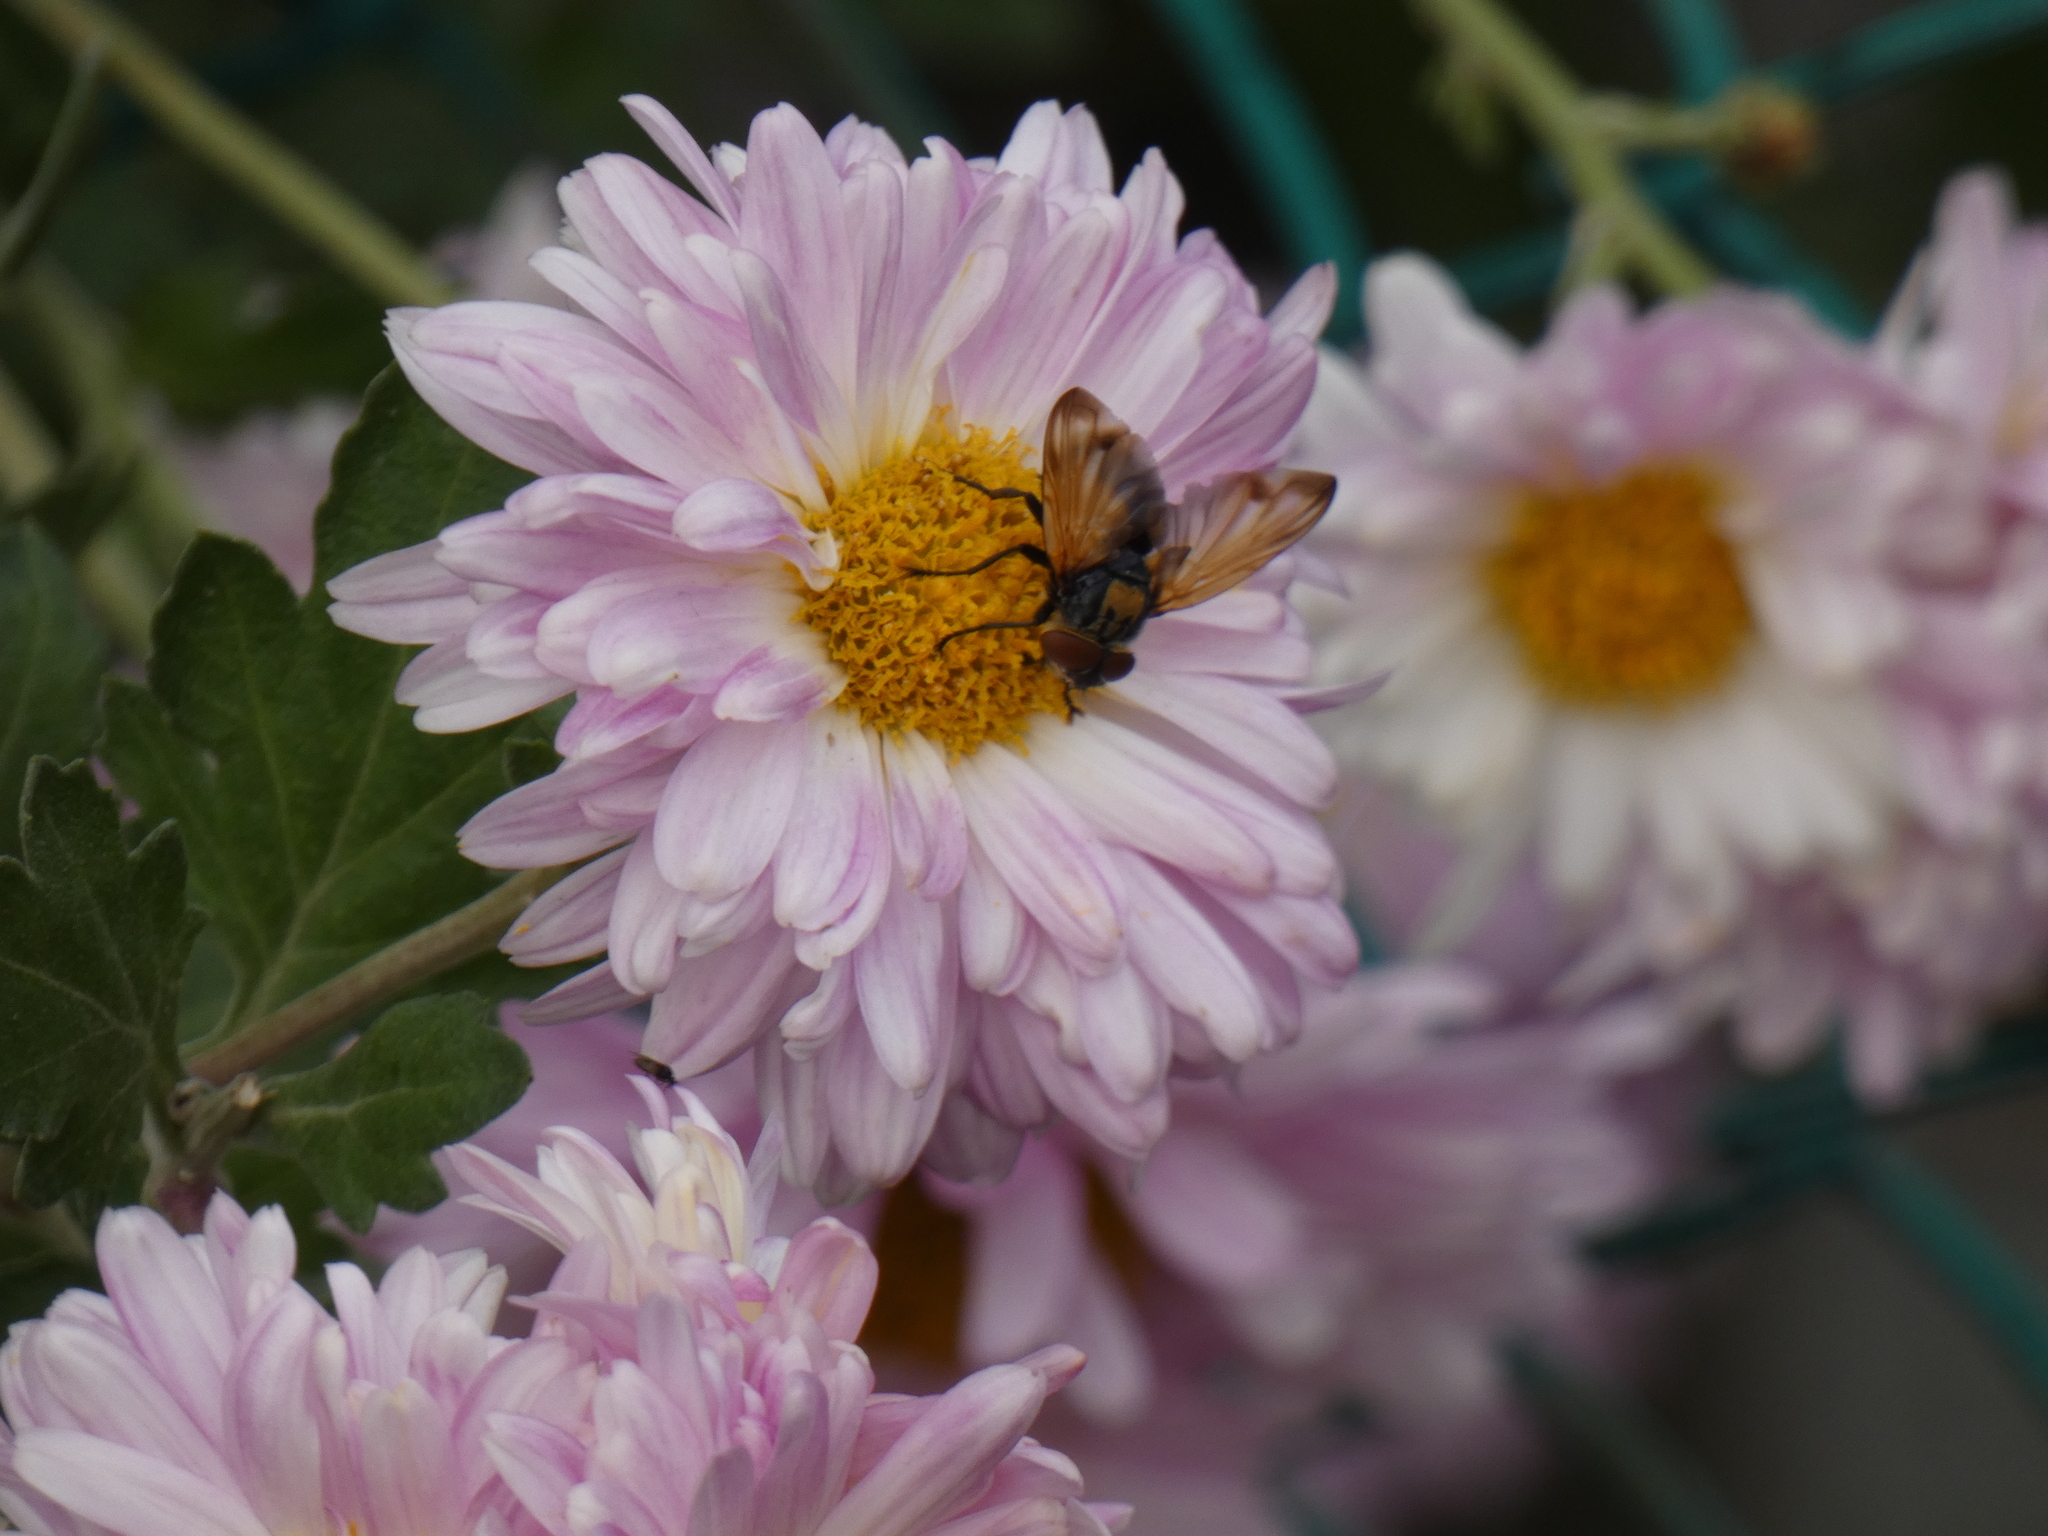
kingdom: Animalia
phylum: Arthropoda
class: Insecta
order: Diptera
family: Tachinidae
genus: Phasia
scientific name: Phasia aurigera
